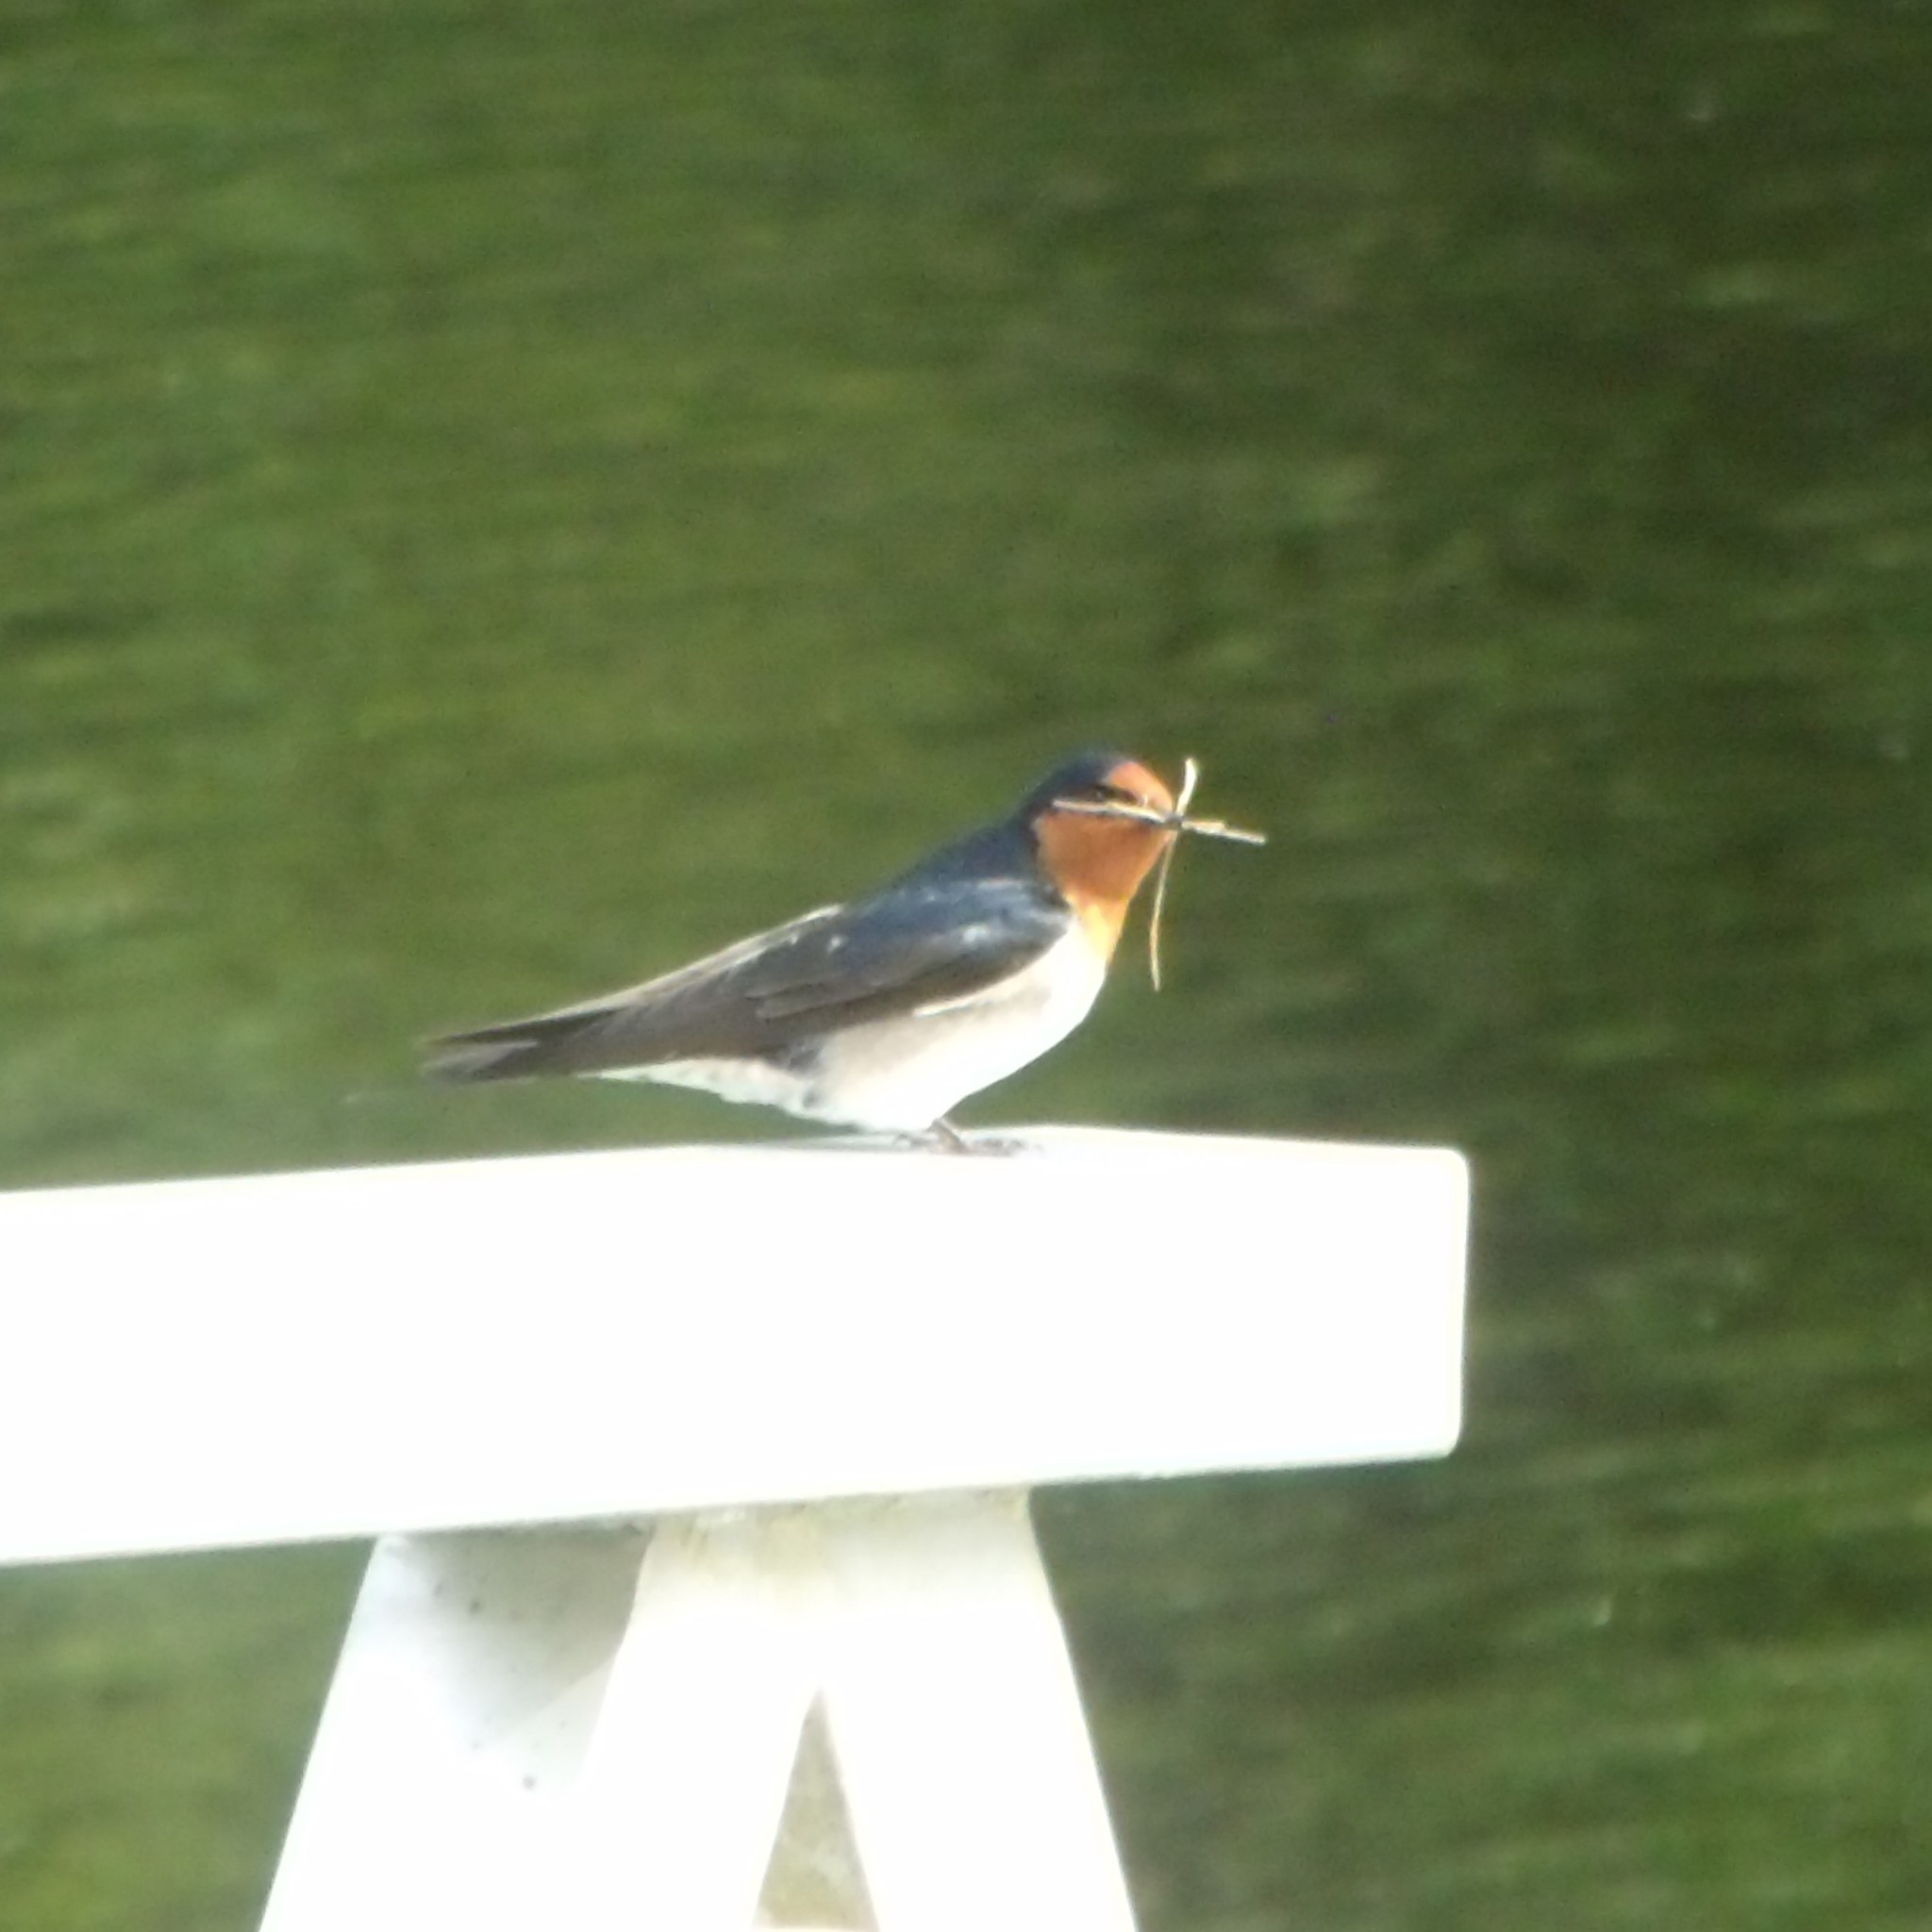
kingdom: Animalia
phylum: Chordata
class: Aves
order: Passeriformes
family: Hirundinidae
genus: Hirundo
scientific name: Hirundo neoxena
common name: Welcome swallow
